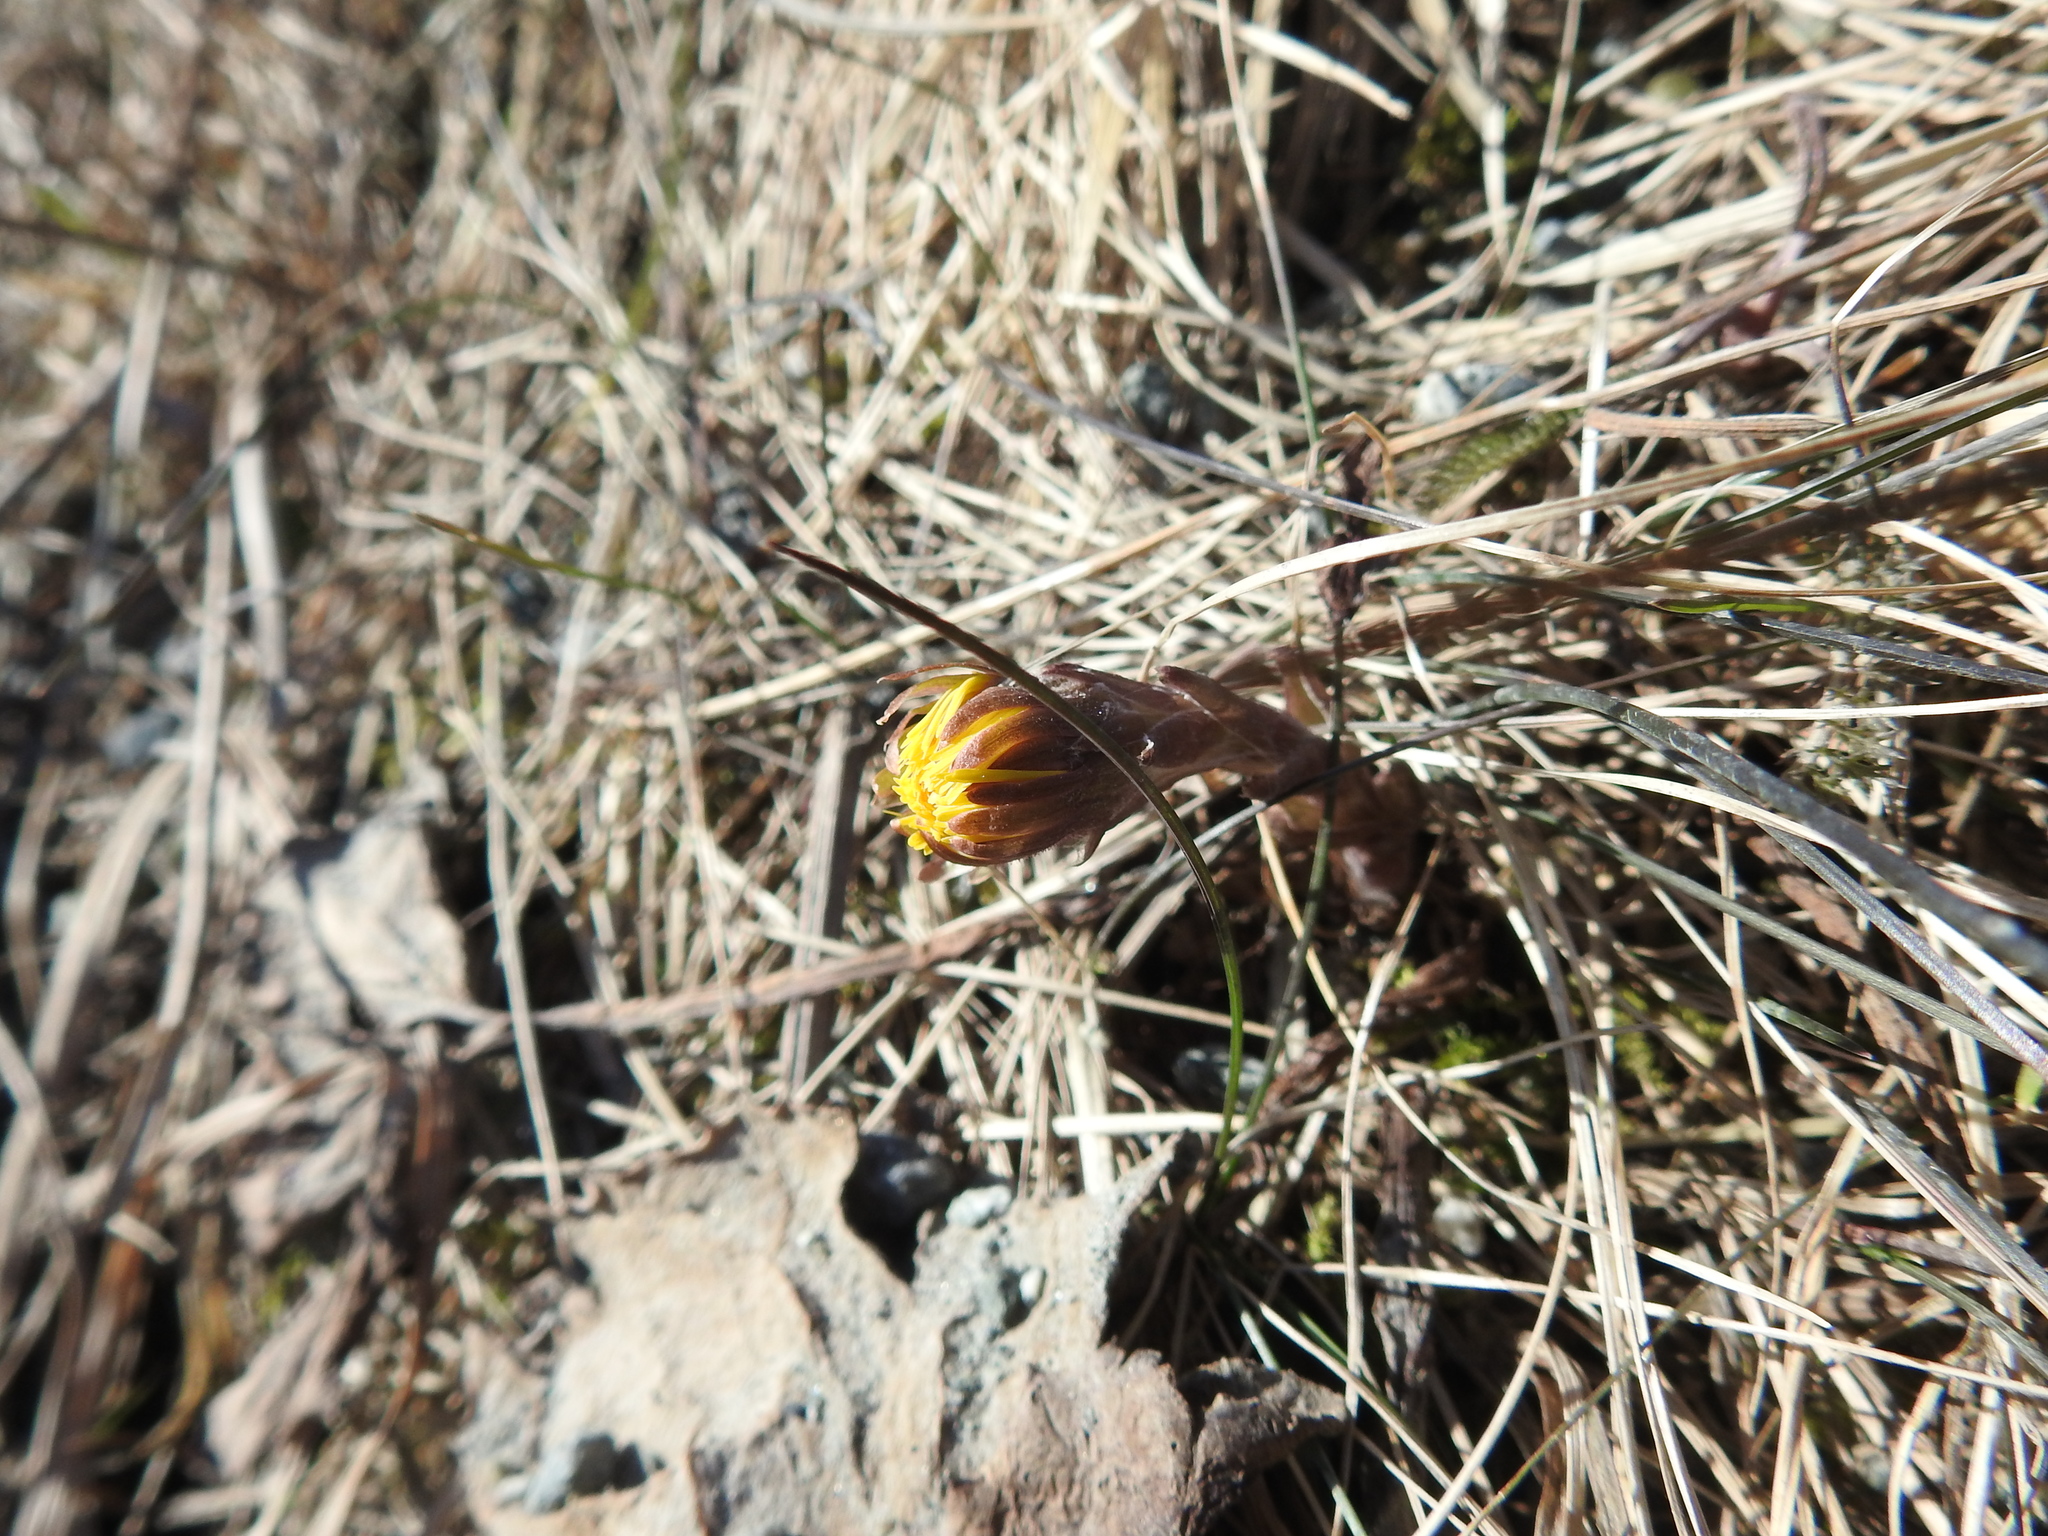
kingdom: Plantae
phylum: Tracheophyta
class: Magnoliopsida
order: Asterales
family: Asteraceae
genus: Tussilago
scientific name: Tussilago farfara
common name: Coltsfoot
